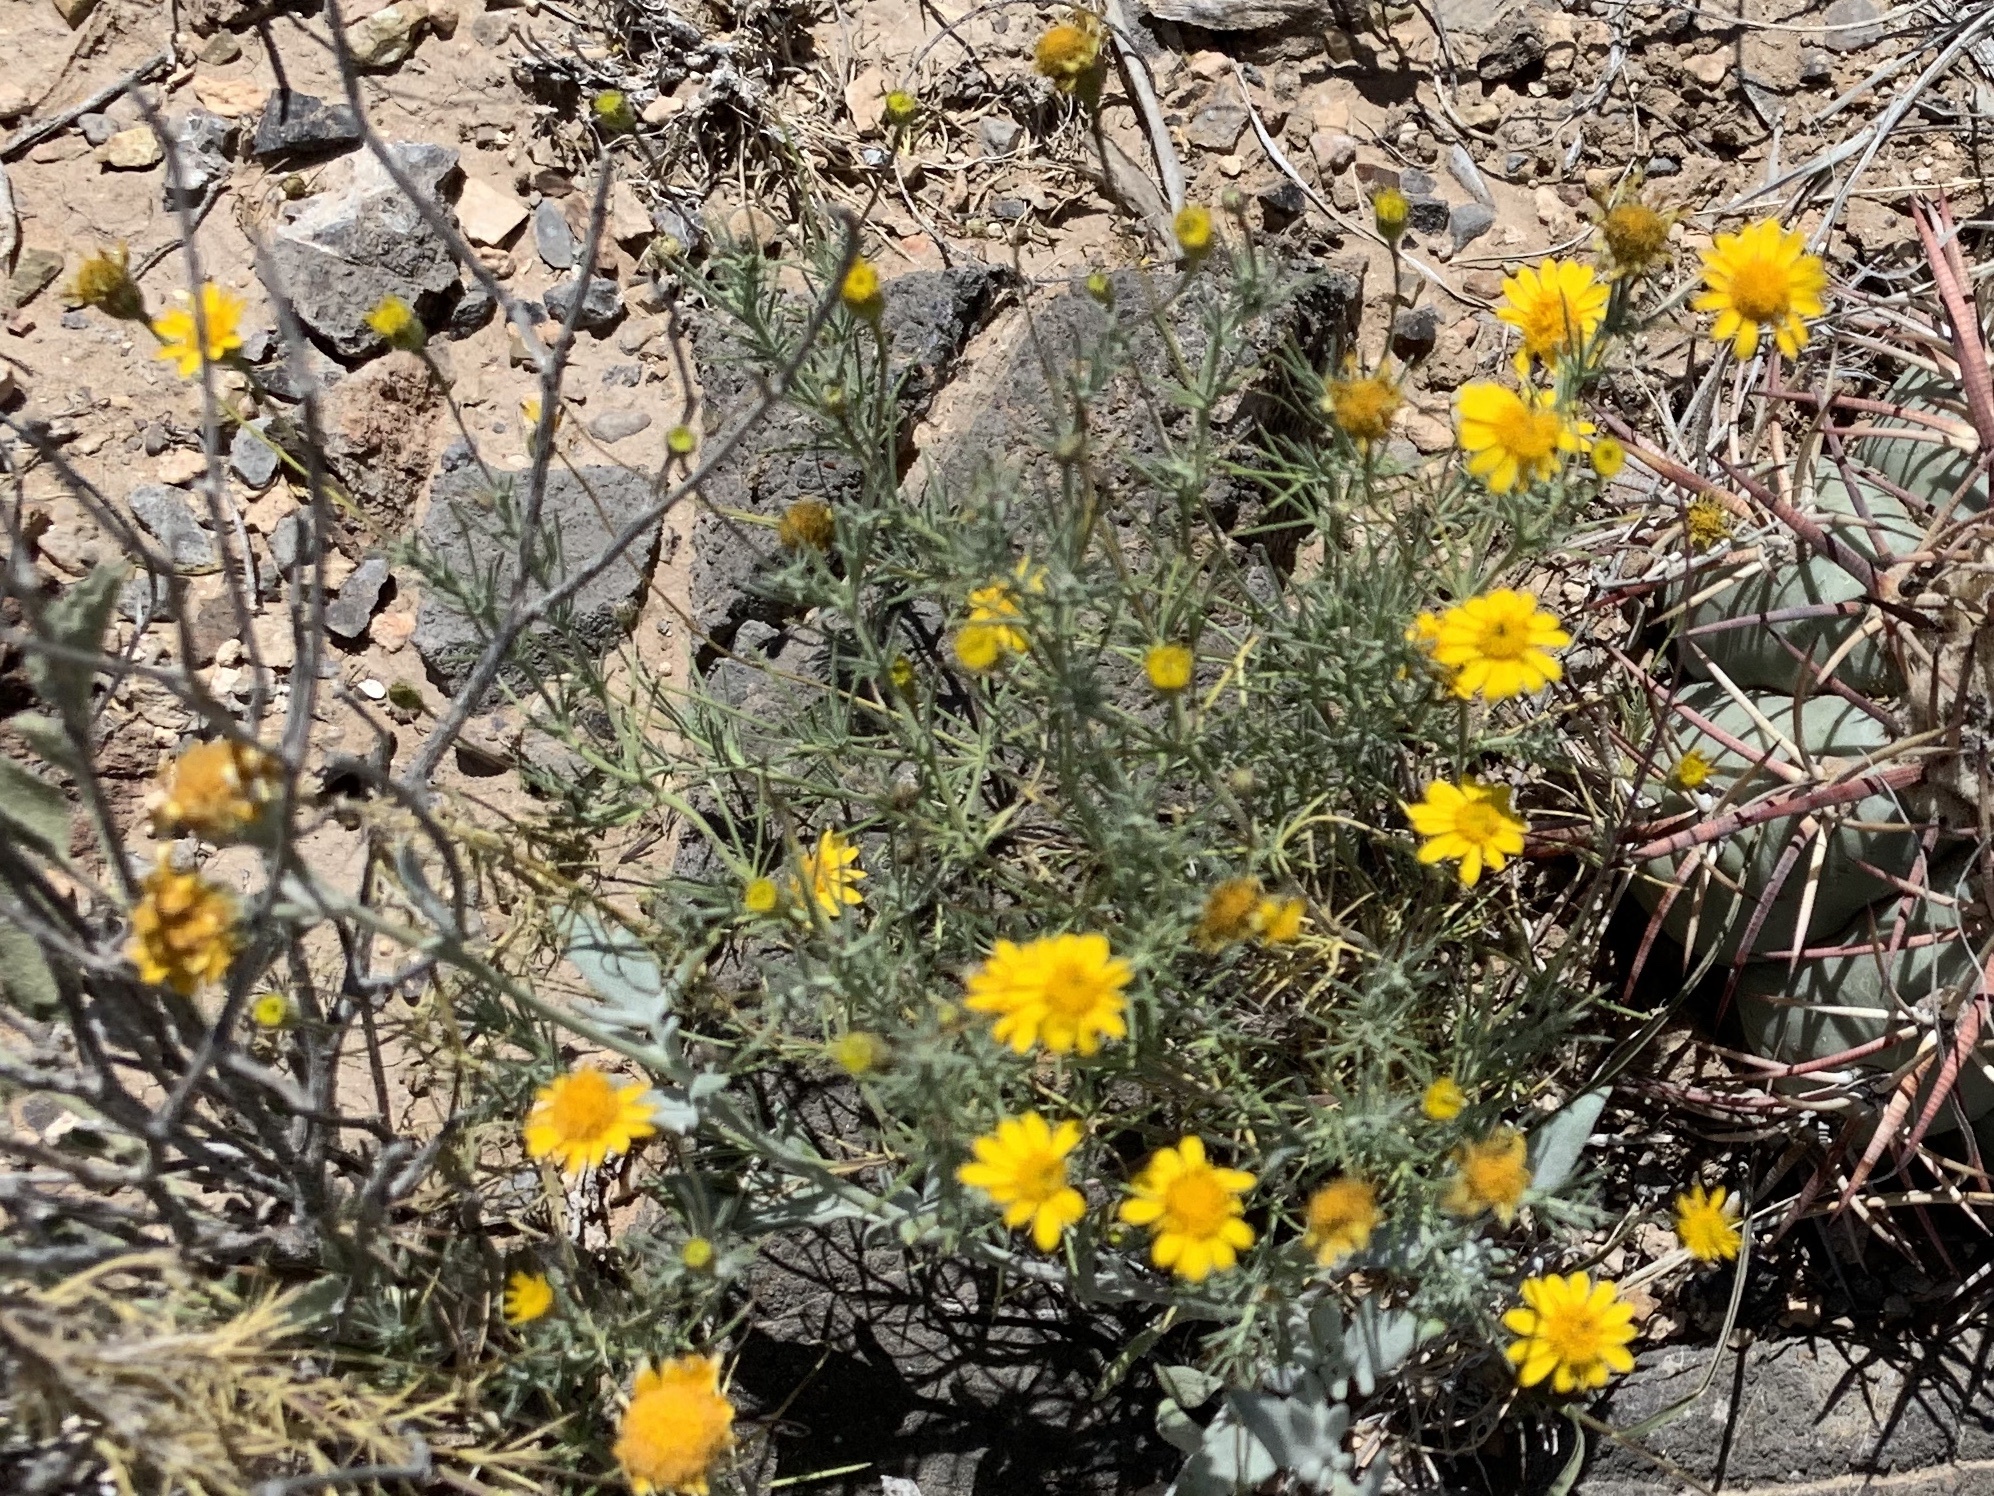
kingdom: Plantae
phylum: Tracheophyta
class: Magnoliopsida
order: Asterales
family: Asteraceae
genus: Thymophylla
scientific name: Thymophylla pentachaeta
